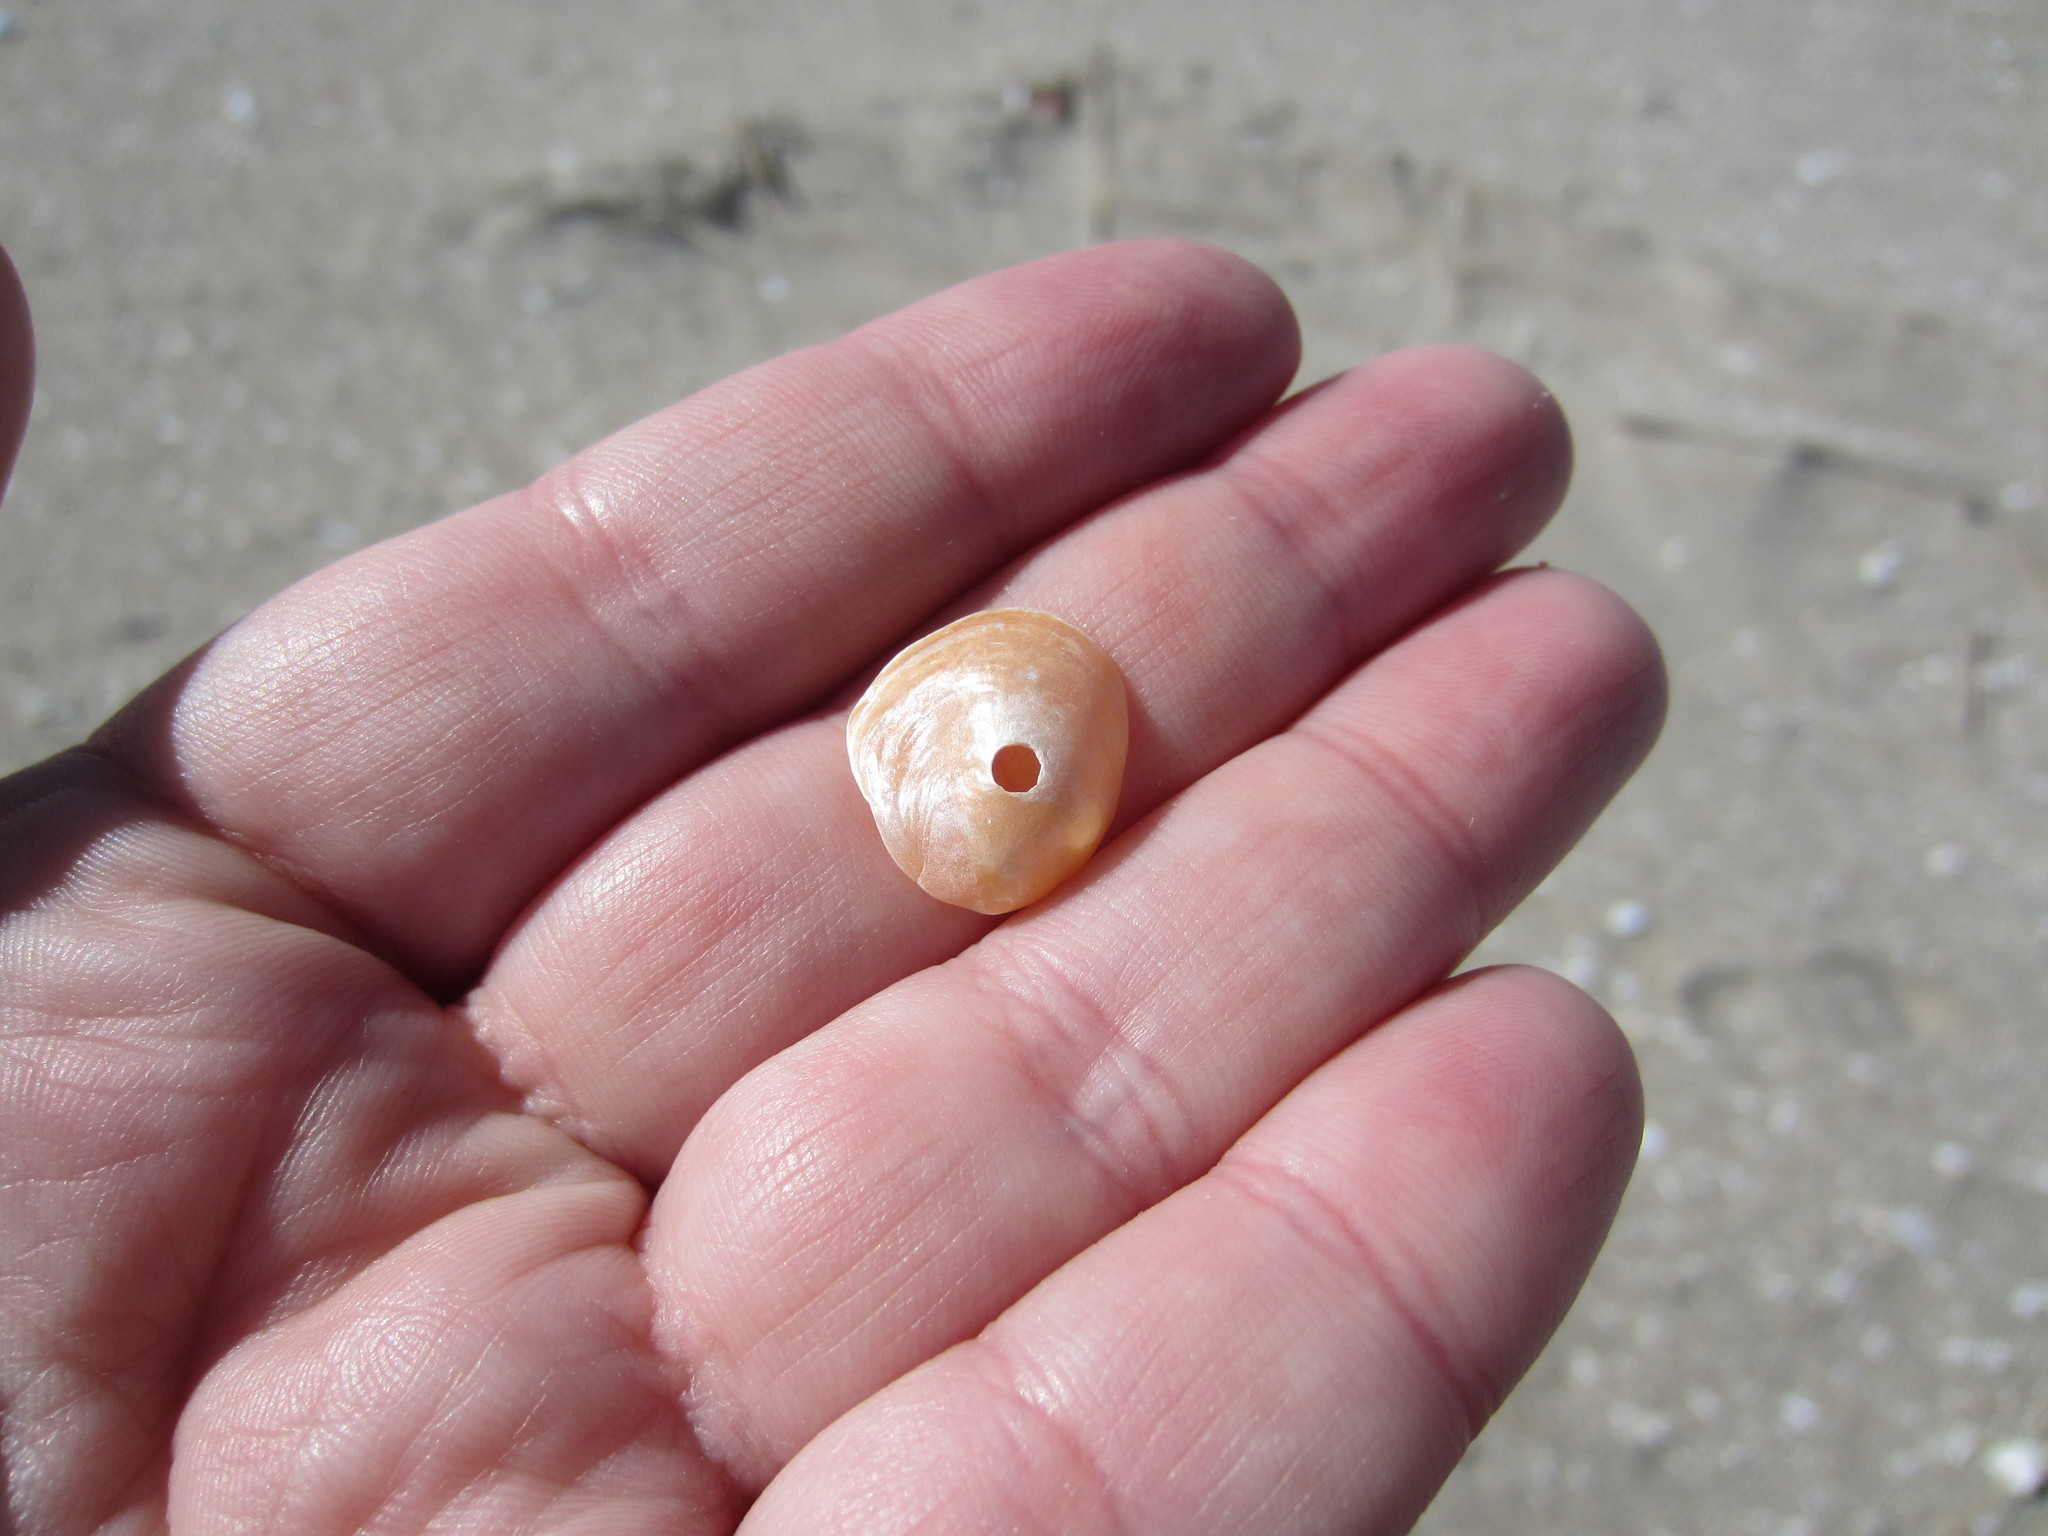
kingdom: Animalia
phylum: Mollusca
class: Bivalvia
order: Pectinida
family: Anomiidae
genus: Anomia
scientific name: Anomia simplex
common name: Common jingle shell
